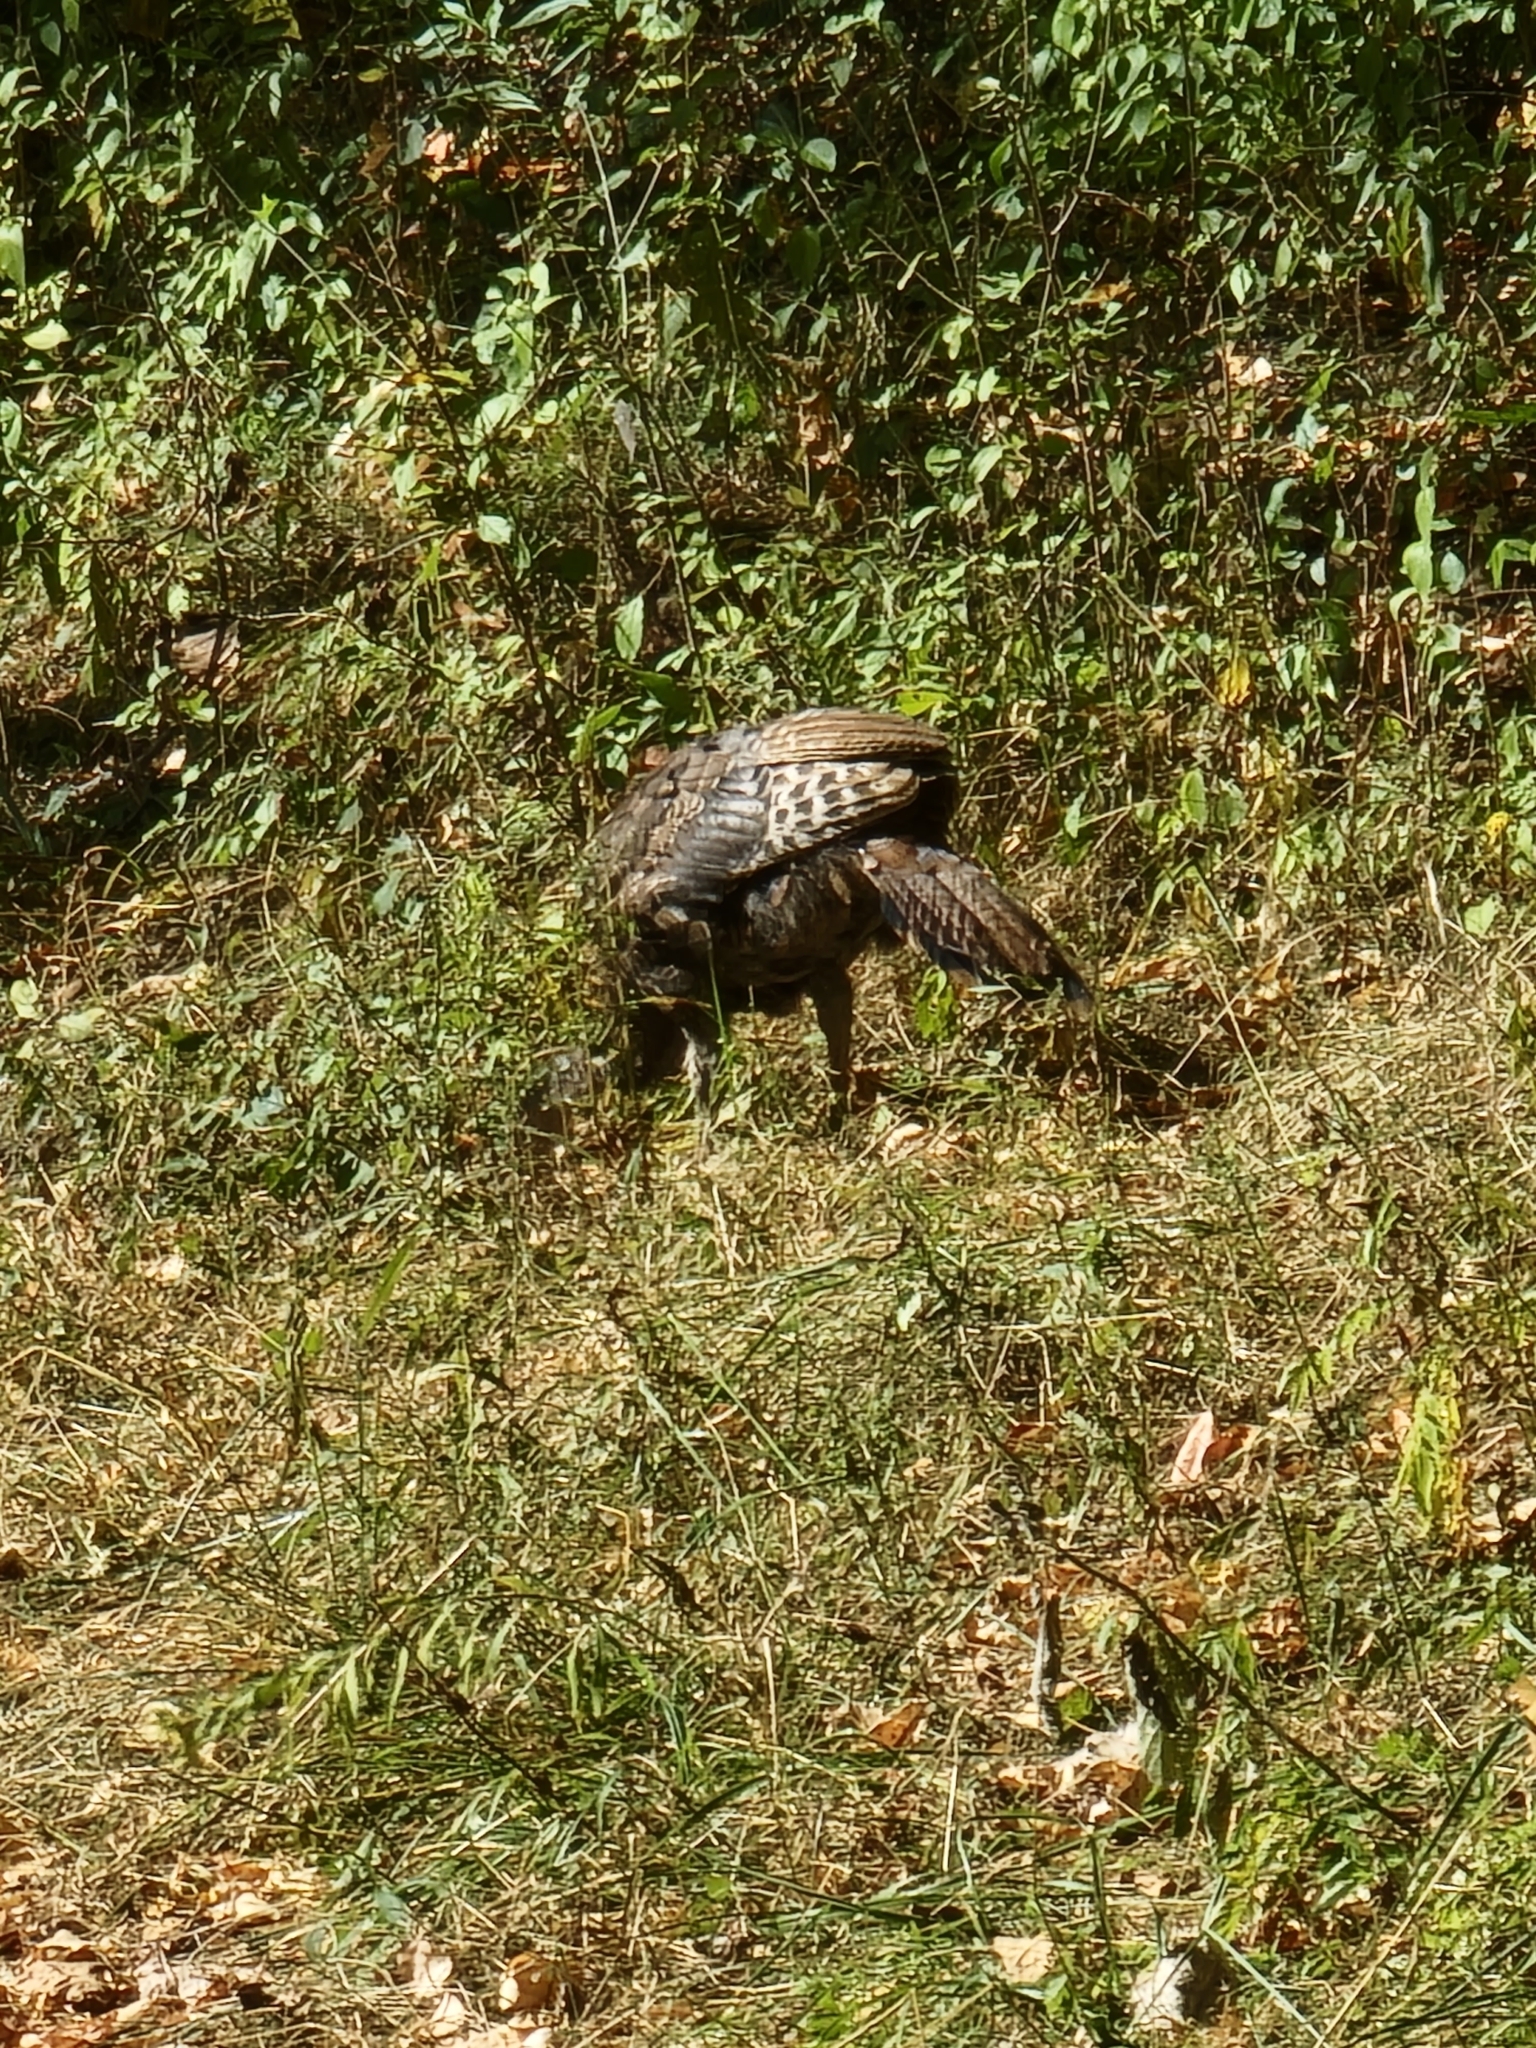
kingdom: Animalia
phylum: Chordata
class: Aves
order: Galliformes
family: Phasianidae
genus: Meleagris
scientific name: Meleagris gallopavo
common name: Wild turkey
